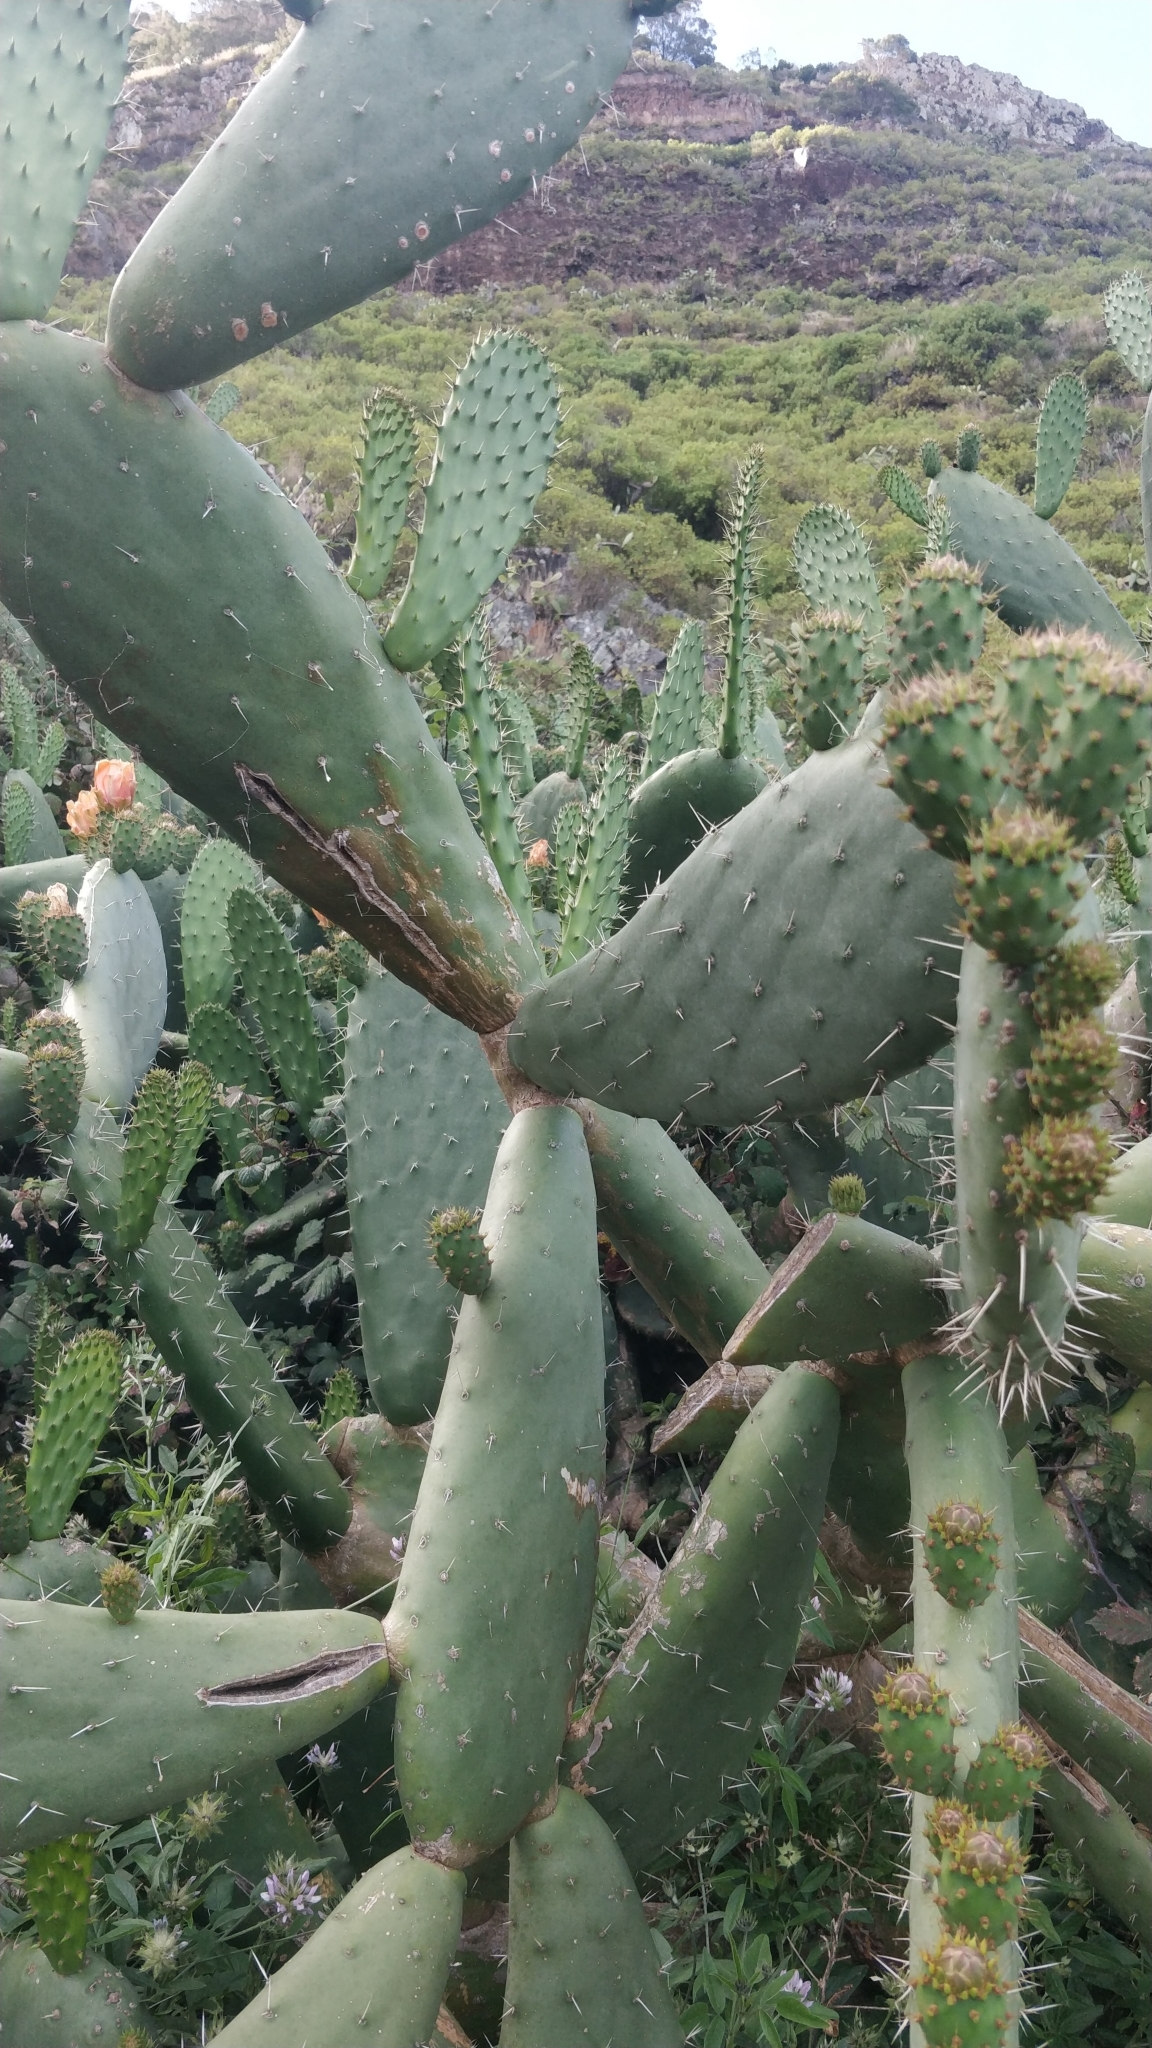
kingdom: Plantae
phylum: Tracheophyta
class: Magnoliopsida
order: Caryophyllales
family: Cactaceae
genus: Opuntia
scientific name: Opuntia ficus-indica
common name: Barbary fig
